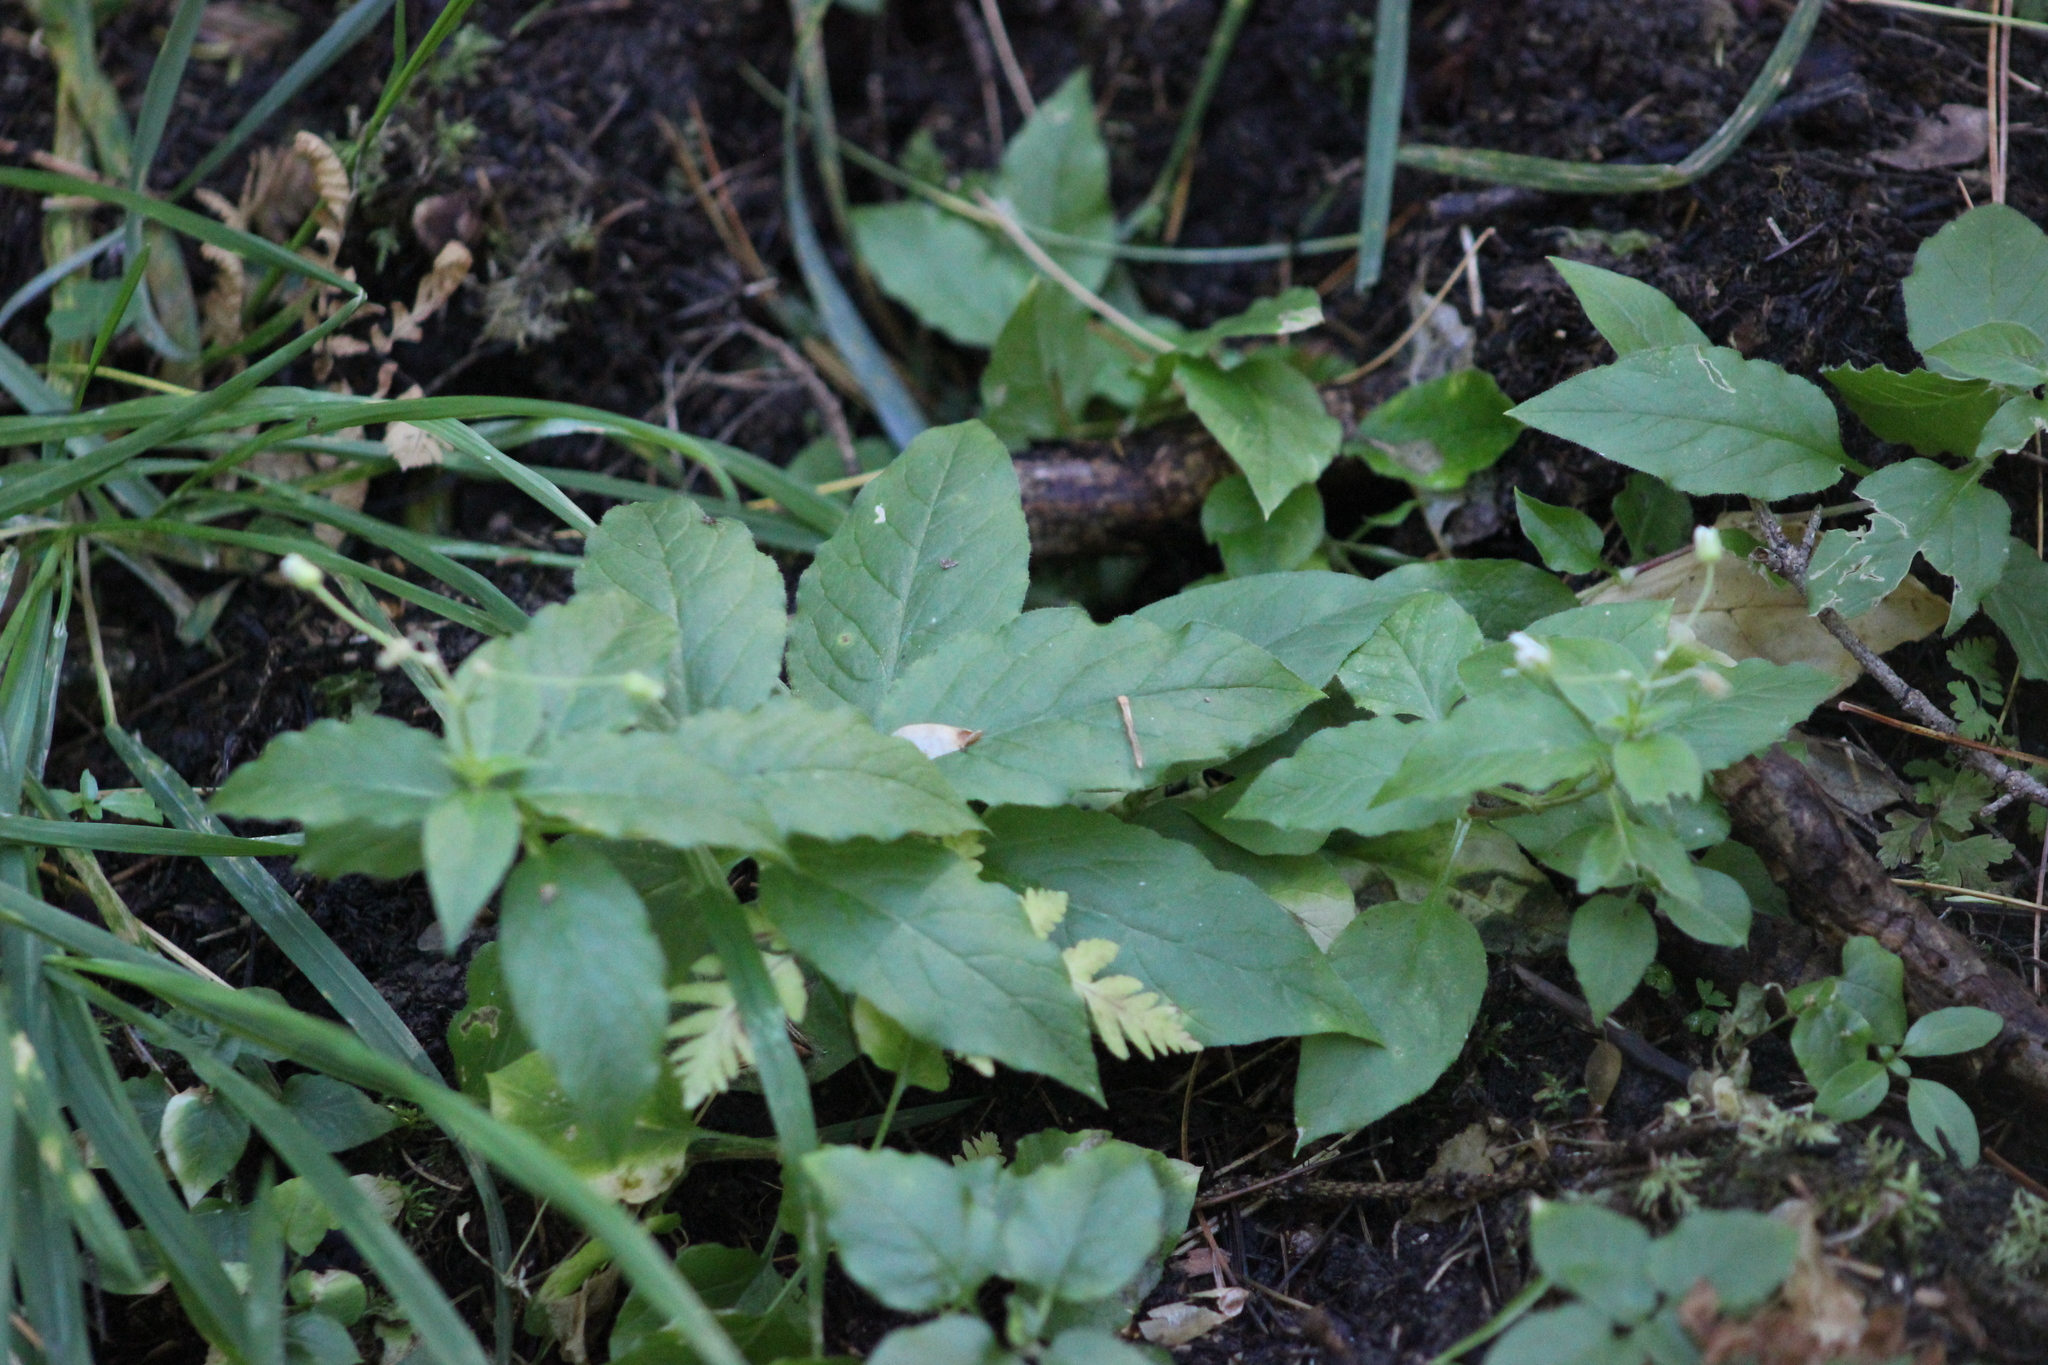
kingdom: Plantae
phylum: Tracheophyta
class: Magnoliopsida
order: Caryophyllales
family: Caryophyllaceae
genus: Stellaria
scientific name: Stellaria bungeana
